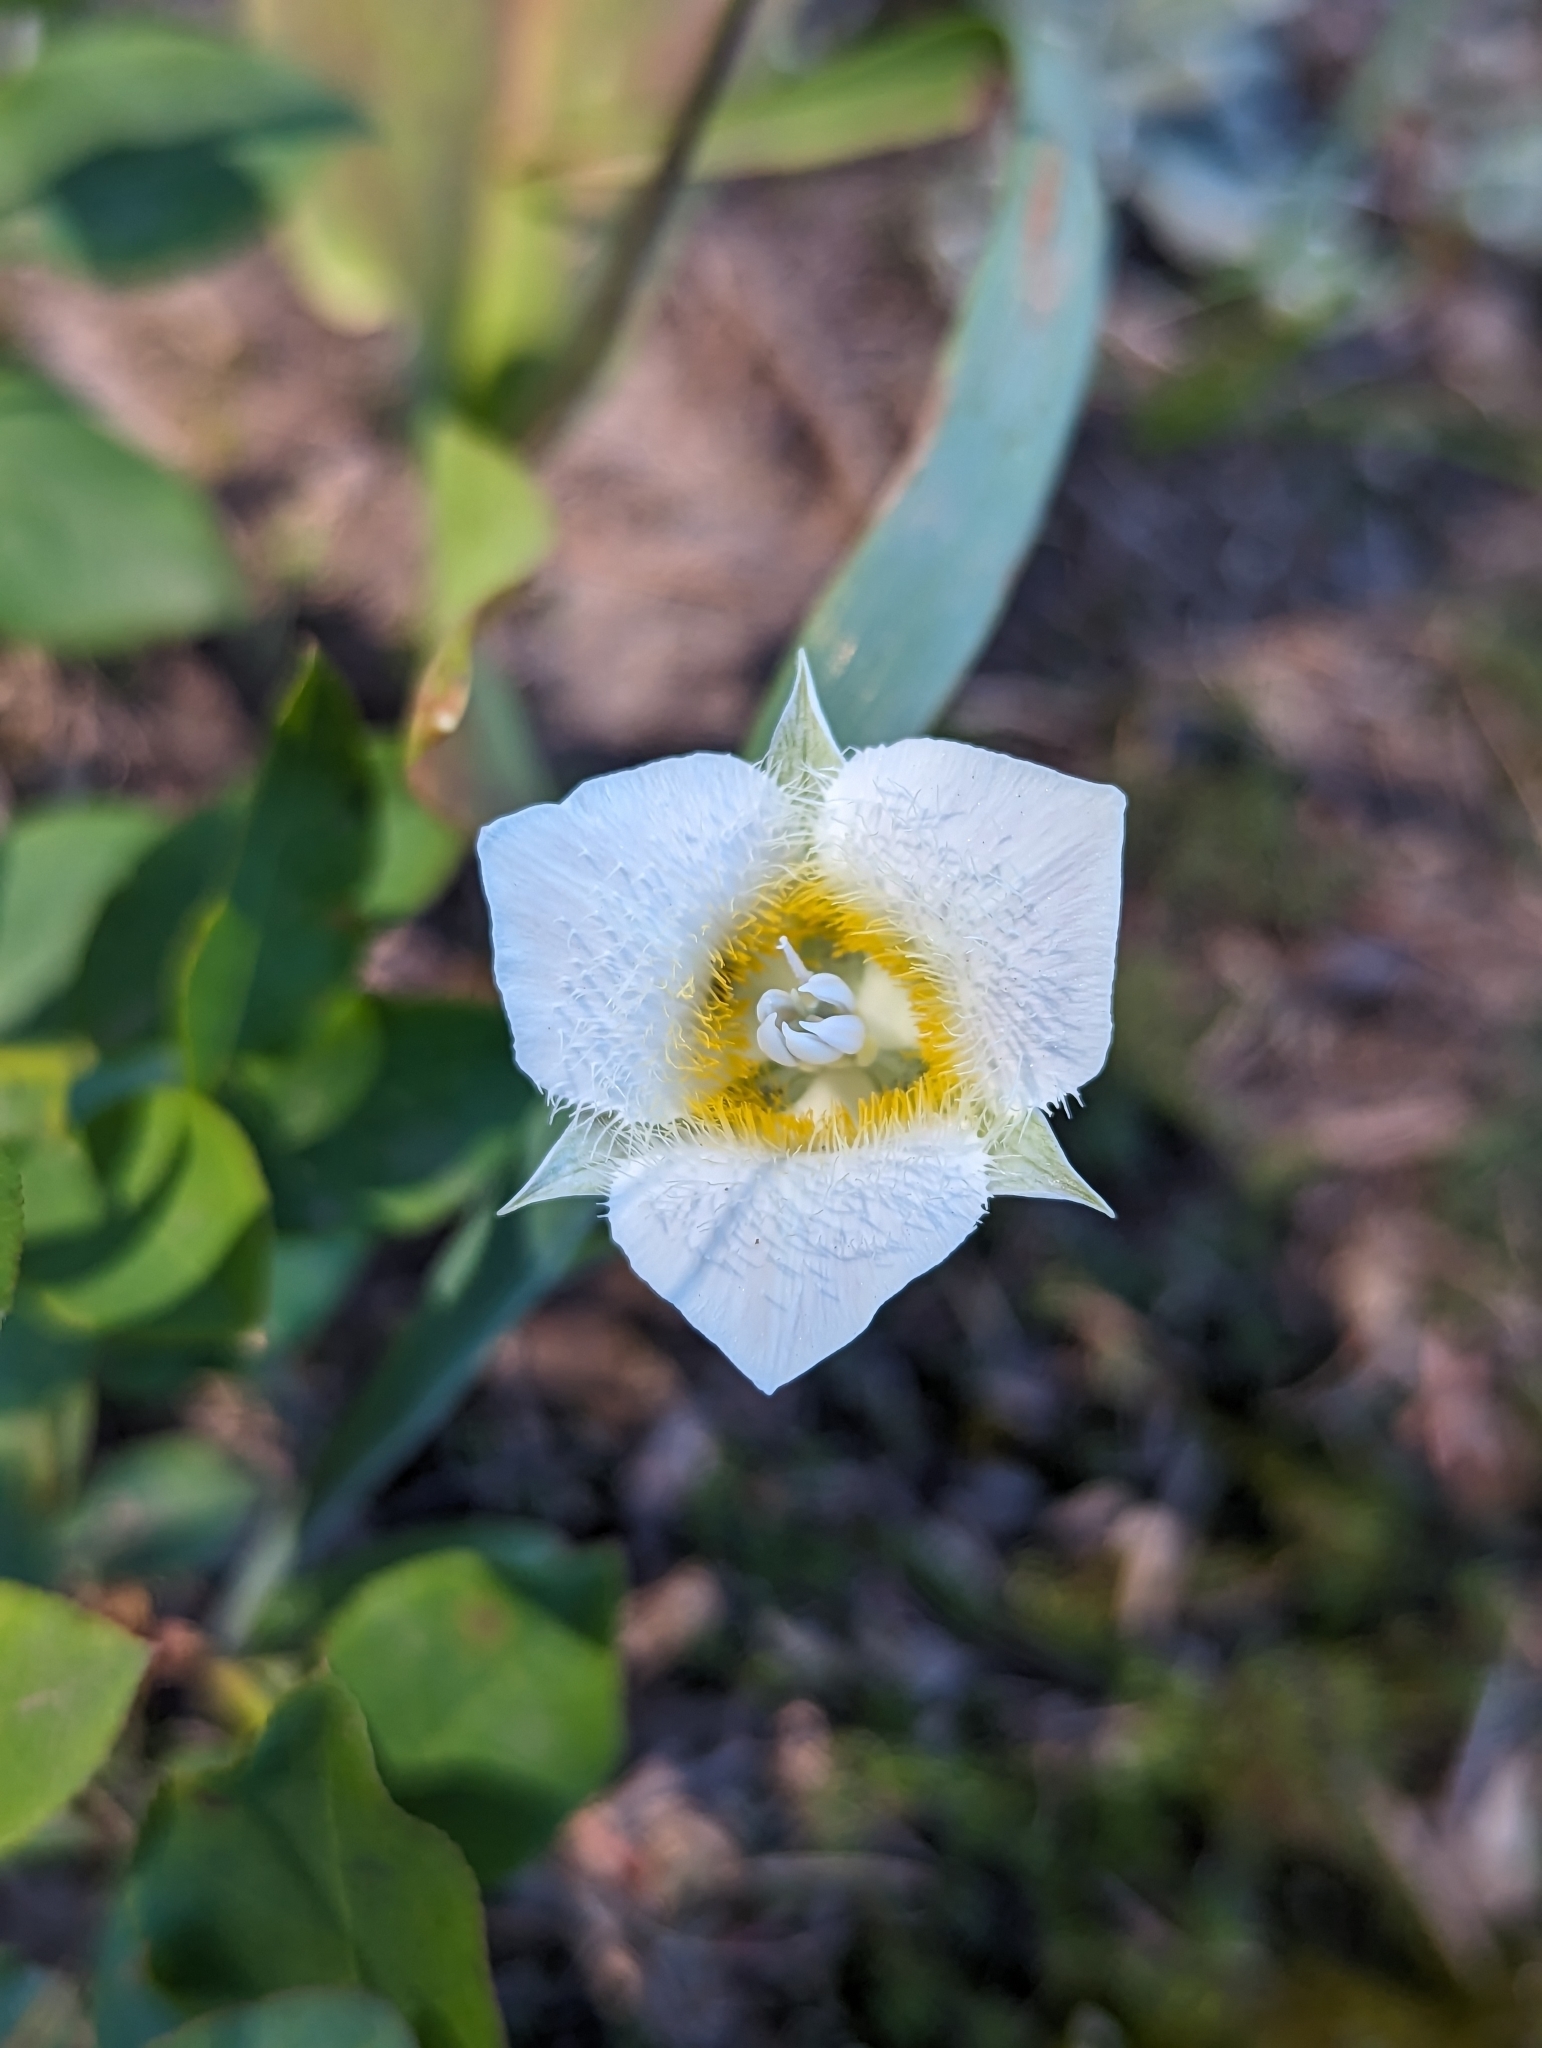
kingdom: Plantae
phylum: Tracheophyta
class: Liliopsida
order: Liliales
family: Liliaceae
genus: Calochortus
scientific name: Calochortus apiculatus
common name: Baker's mariposa lily
